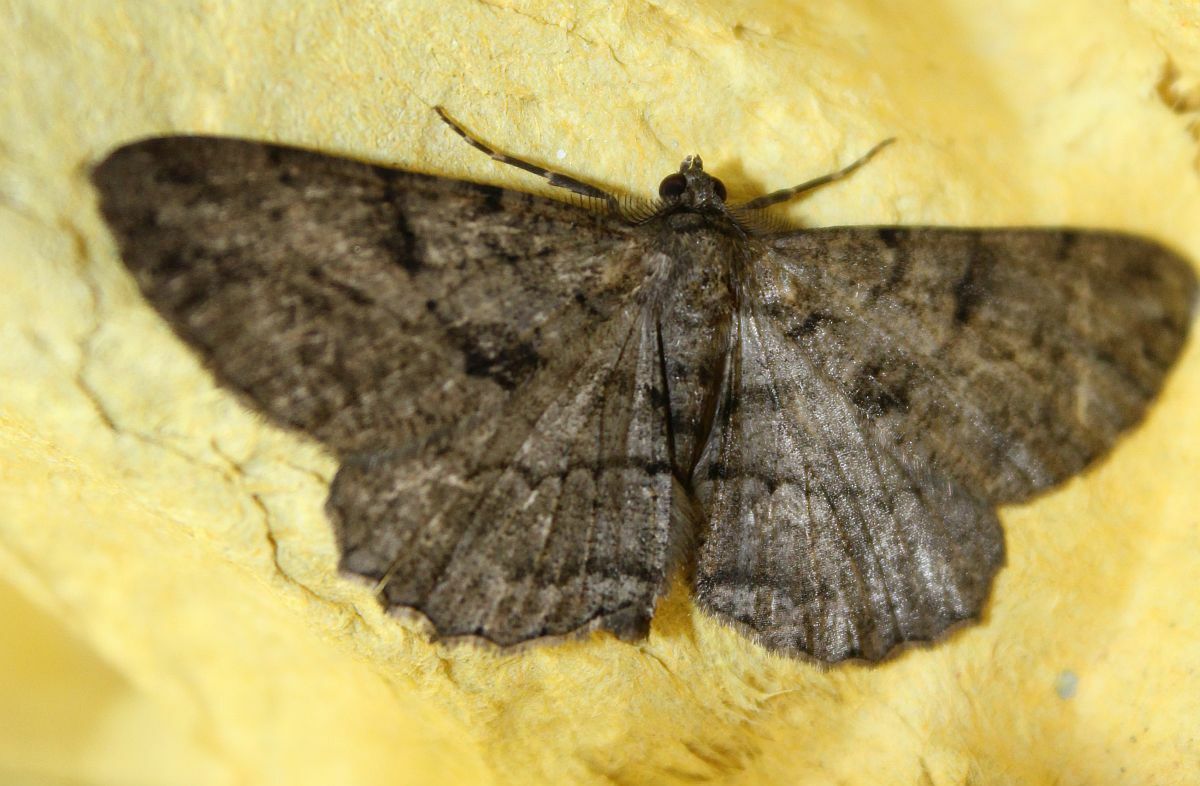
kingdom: Animalia
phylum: Arthropoda
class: Insecta
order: Lepidoptera
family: Geometridae
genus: Peribatodes
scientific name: Peribatodes rhomboidaria
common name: Willow beauty
